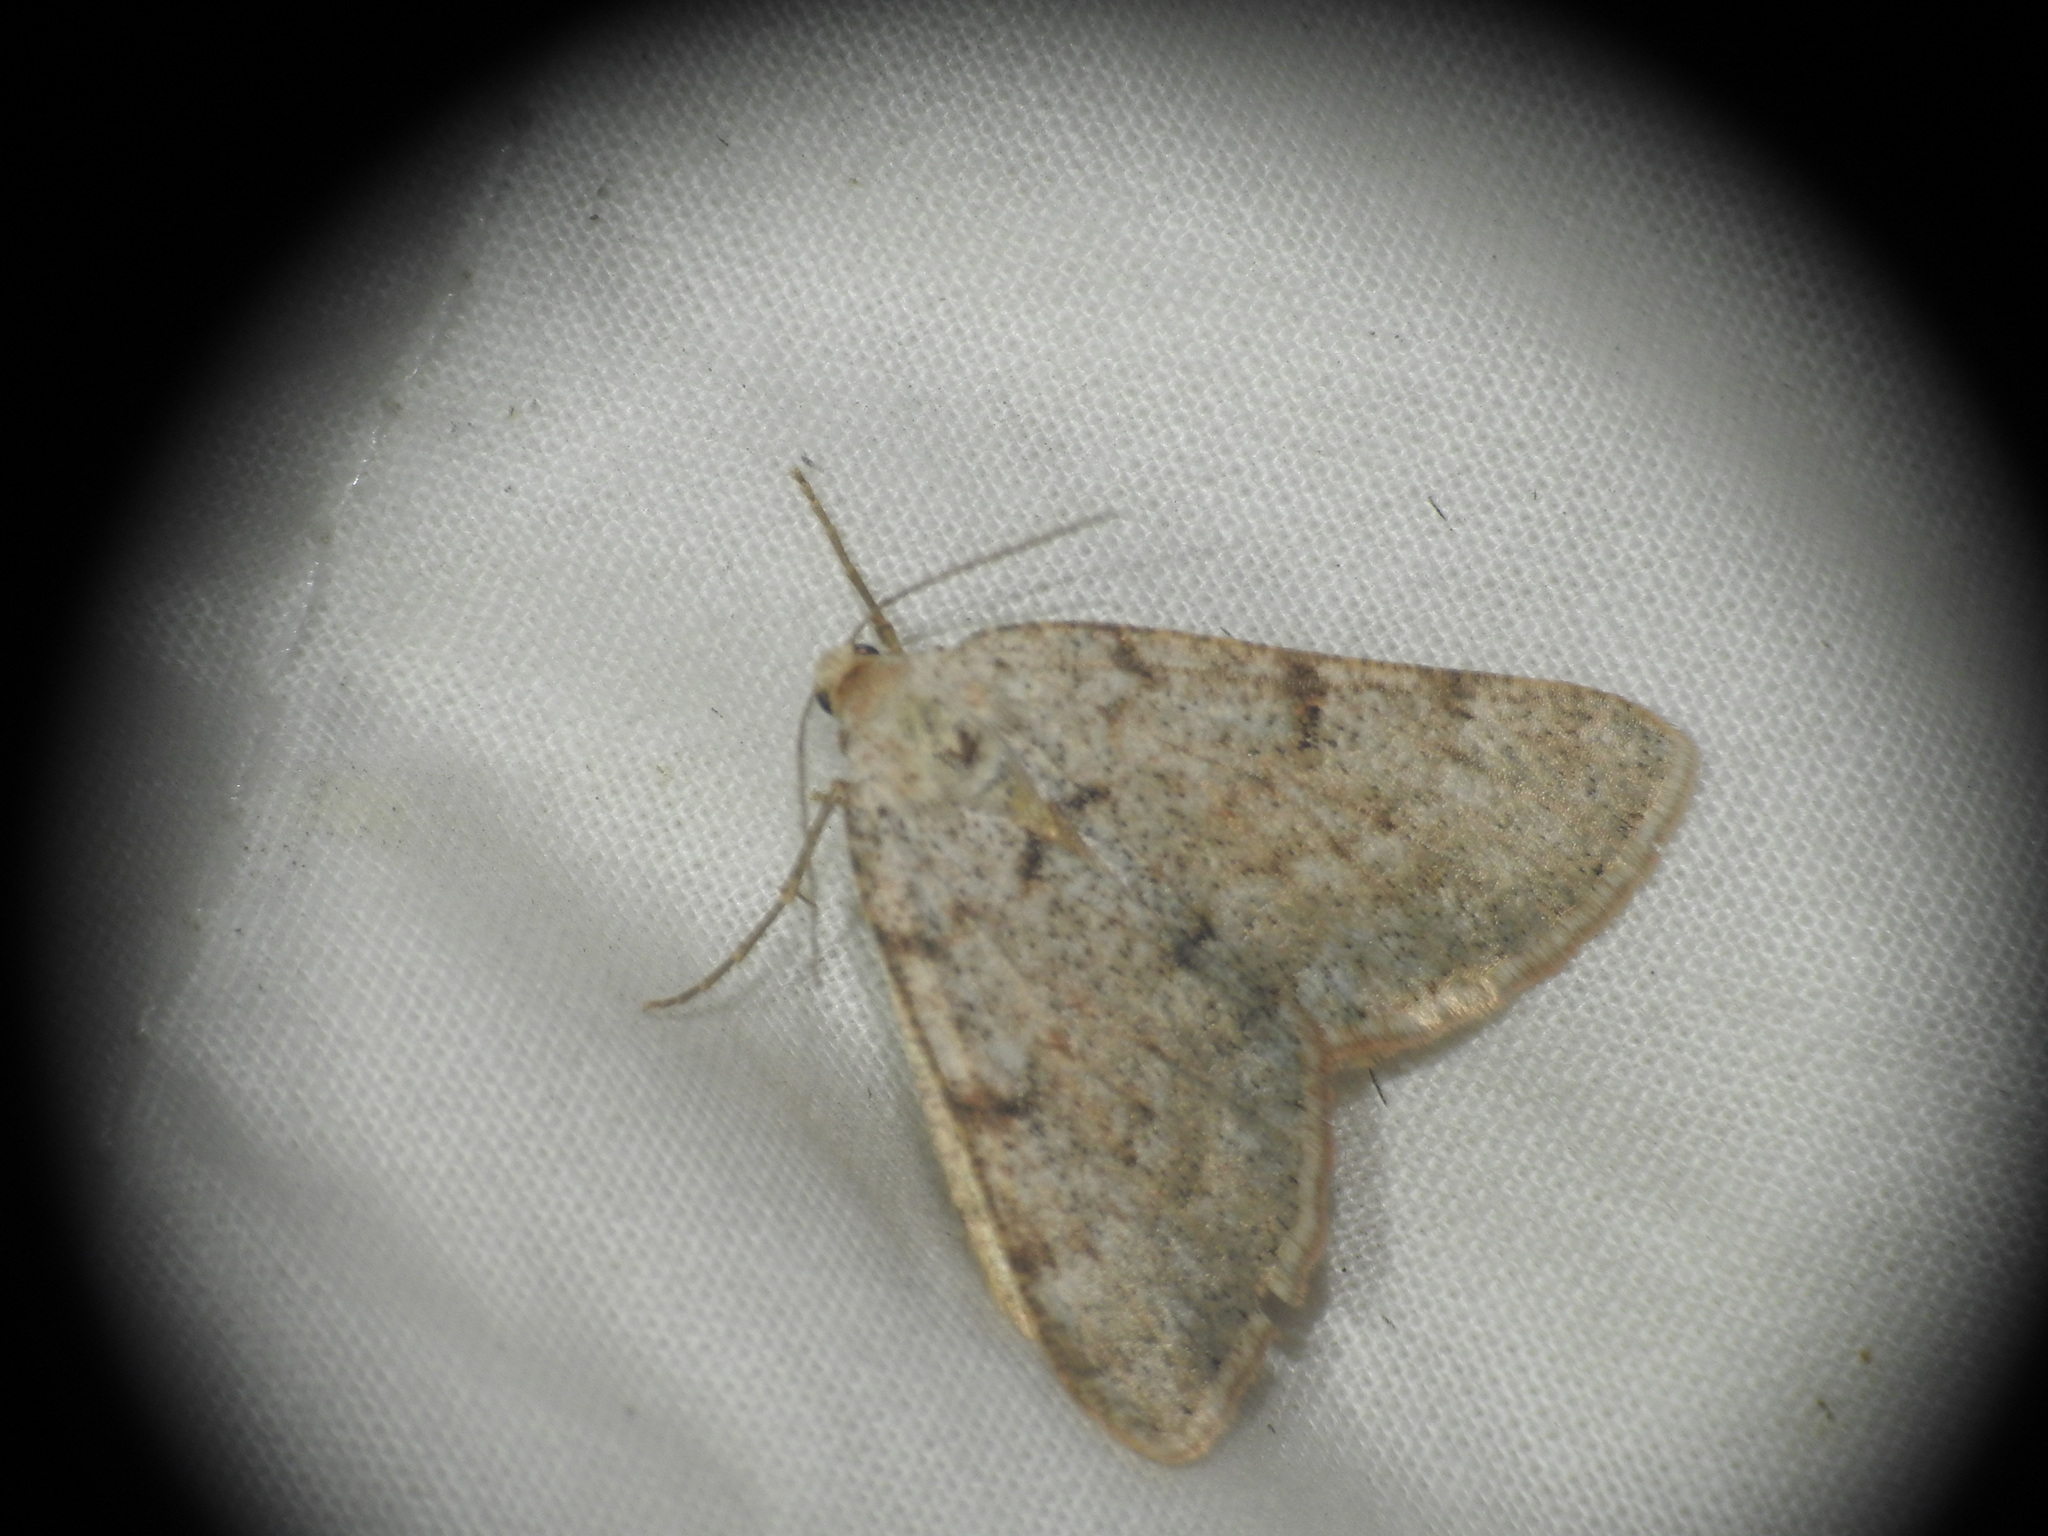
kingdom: Animalia
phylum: Arthropoda
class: Insecta
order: Lepidoptera
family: Geometridae
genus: Isturgia
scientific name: Isturgia miniosaria
